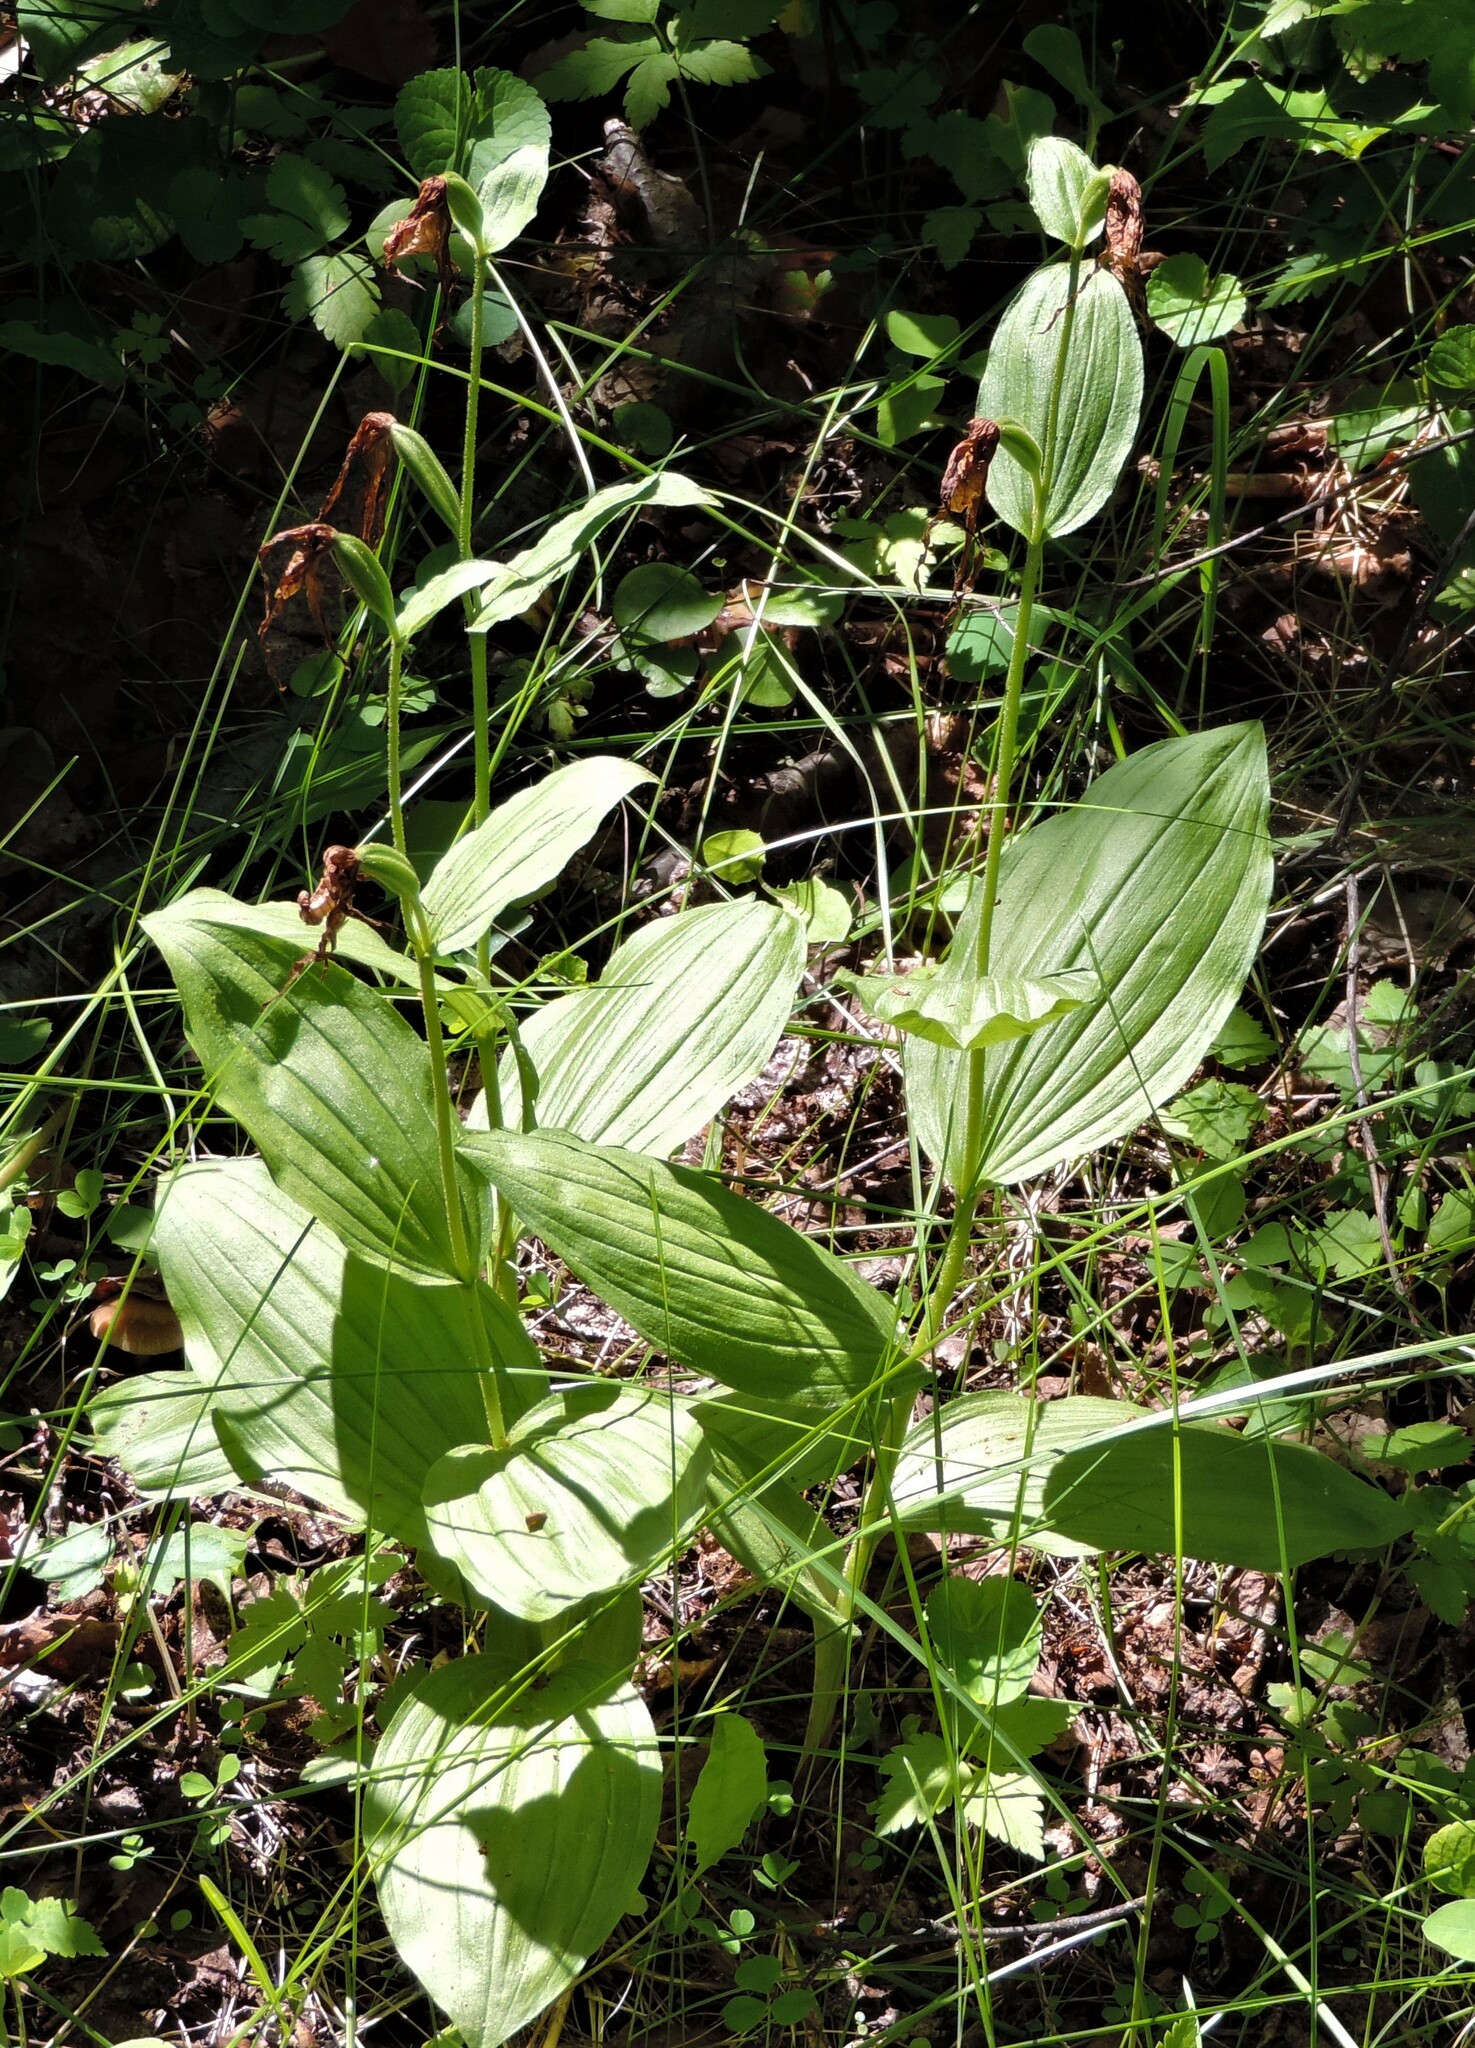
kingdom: Plantae
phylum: Tracheophyta
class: Liliopsida
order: Asparagales
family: Orchidaceae
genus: Cypripedium
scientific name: Cypripedium montanum
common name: Mountain lady's-slipper
